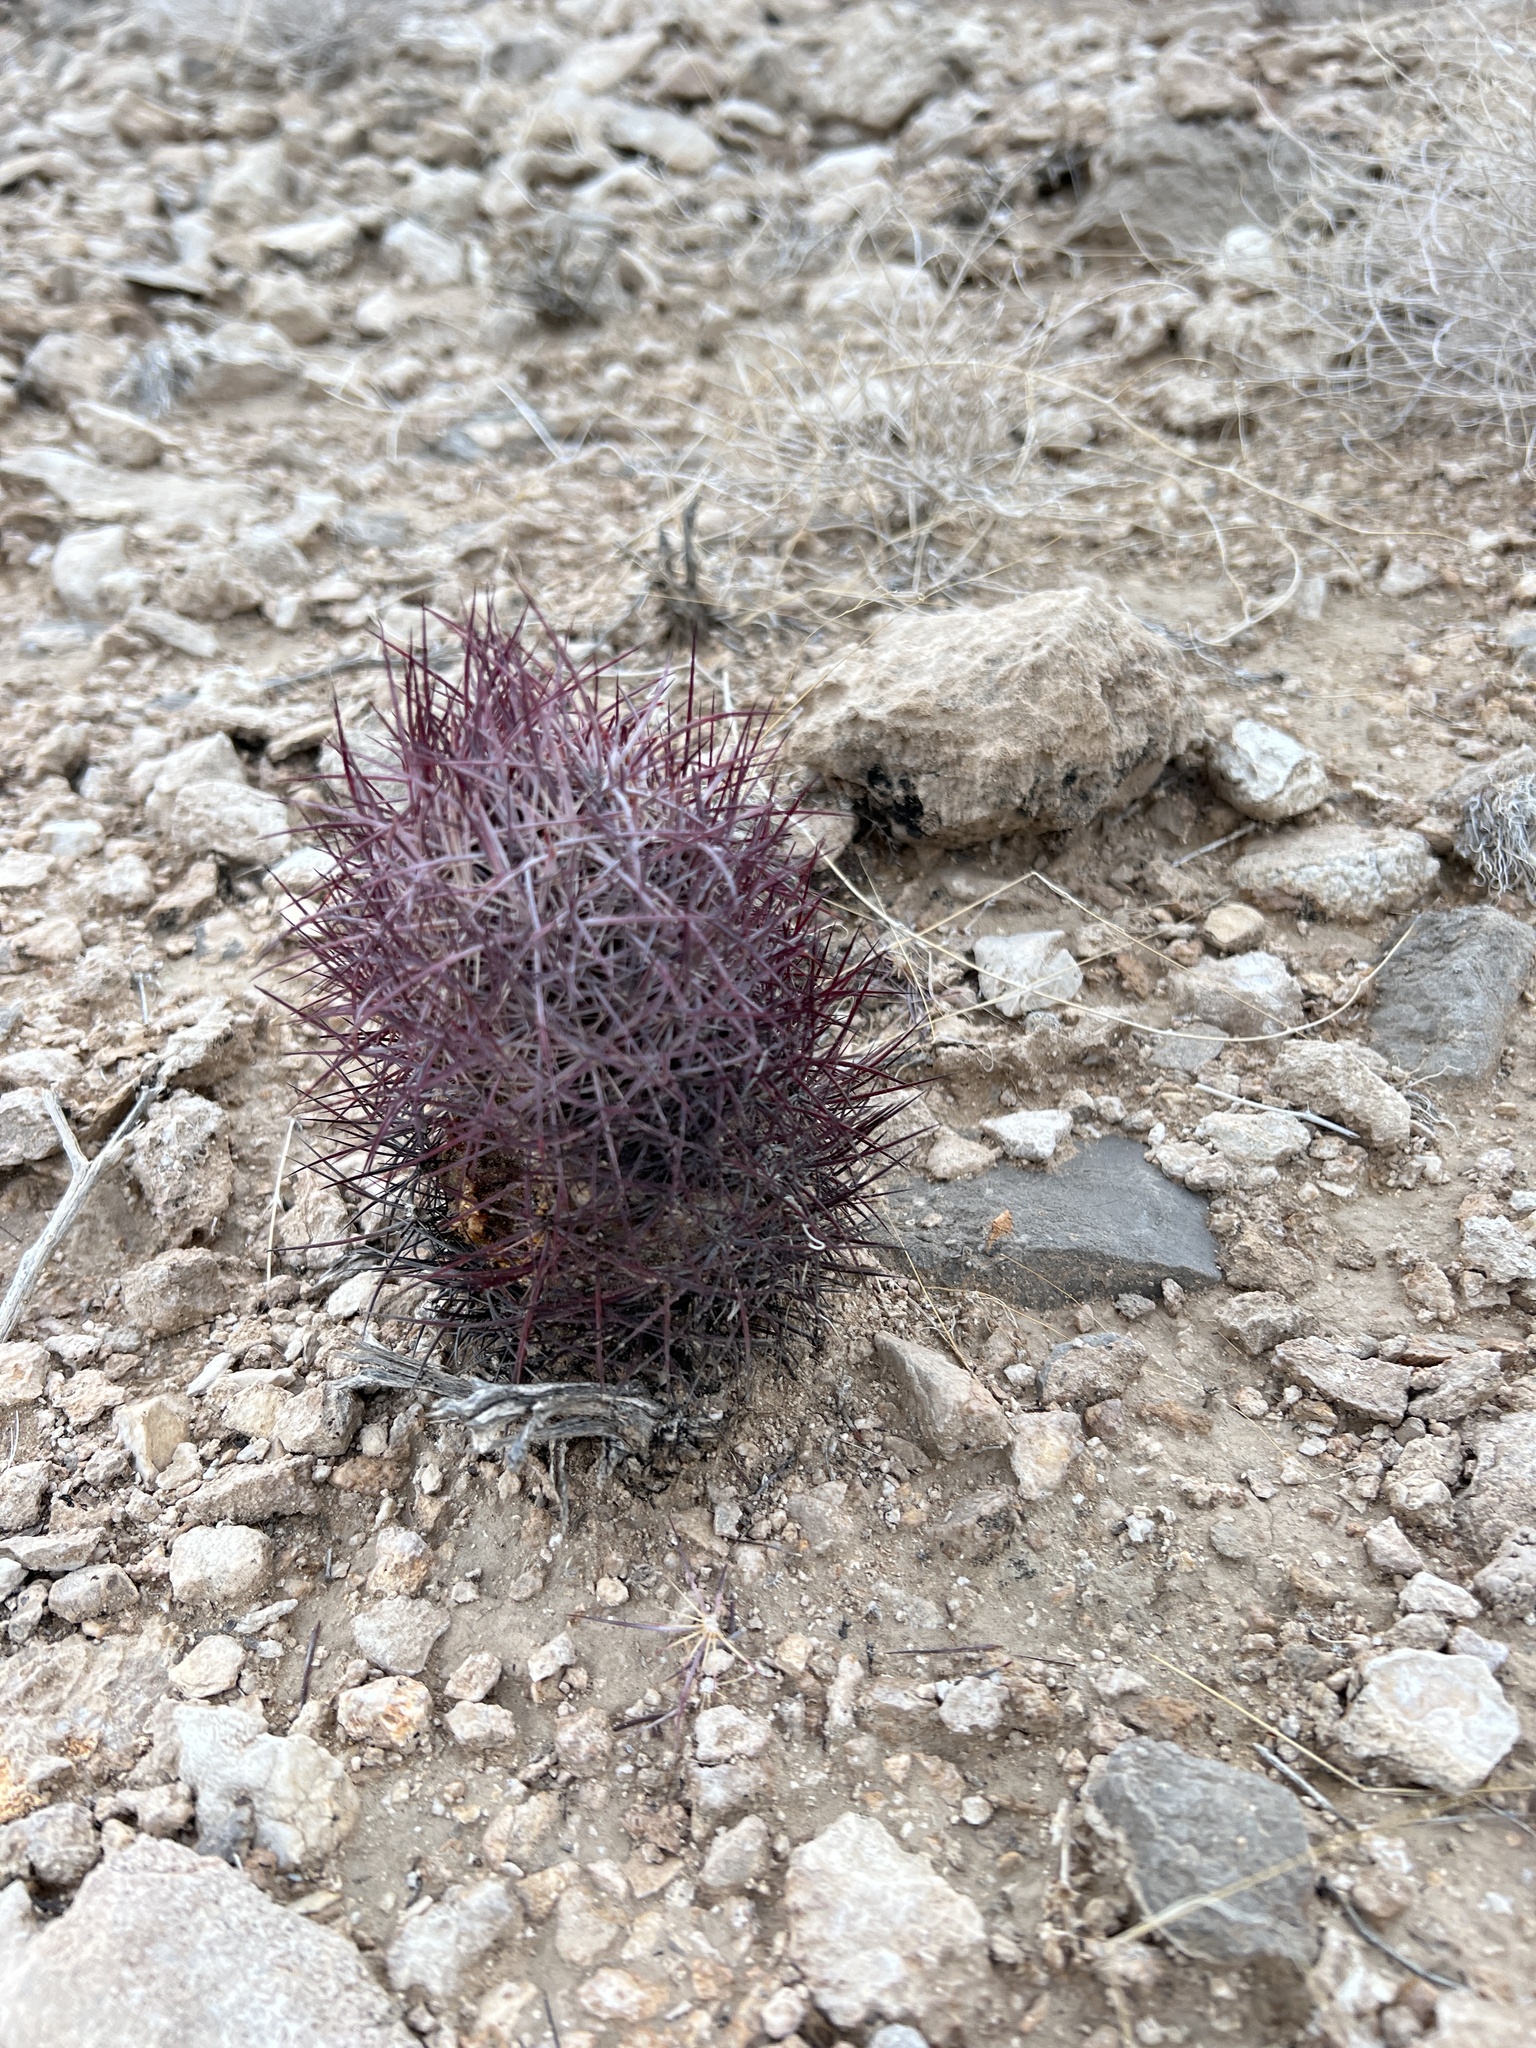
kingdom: Plantae
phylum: Tracheophyta
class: Magnoliopsida
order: Caryophyllales
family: Cactaceae
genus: Sclerocactus
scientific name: Sclerocactus johnsonii
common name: Eight-spine fishhook cactus
